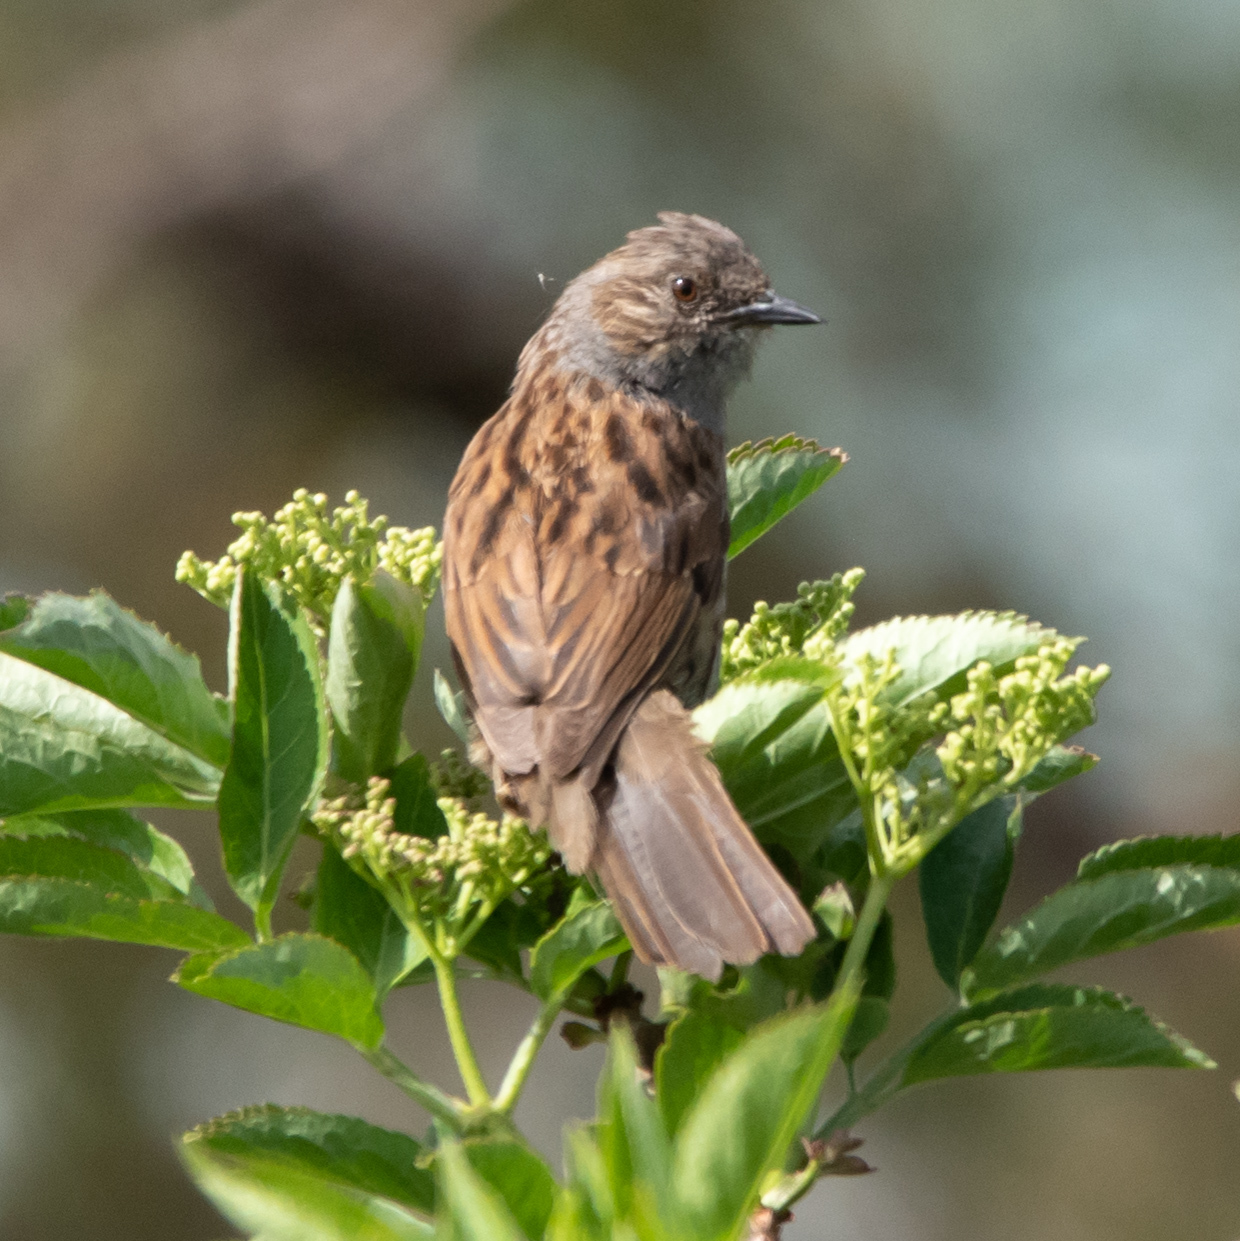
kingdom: Animalia
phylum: Chordata
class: Aves
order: Passeriformes
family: Prunellidae
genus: Prunella
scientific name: Prunella modularis
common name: Dunnock
